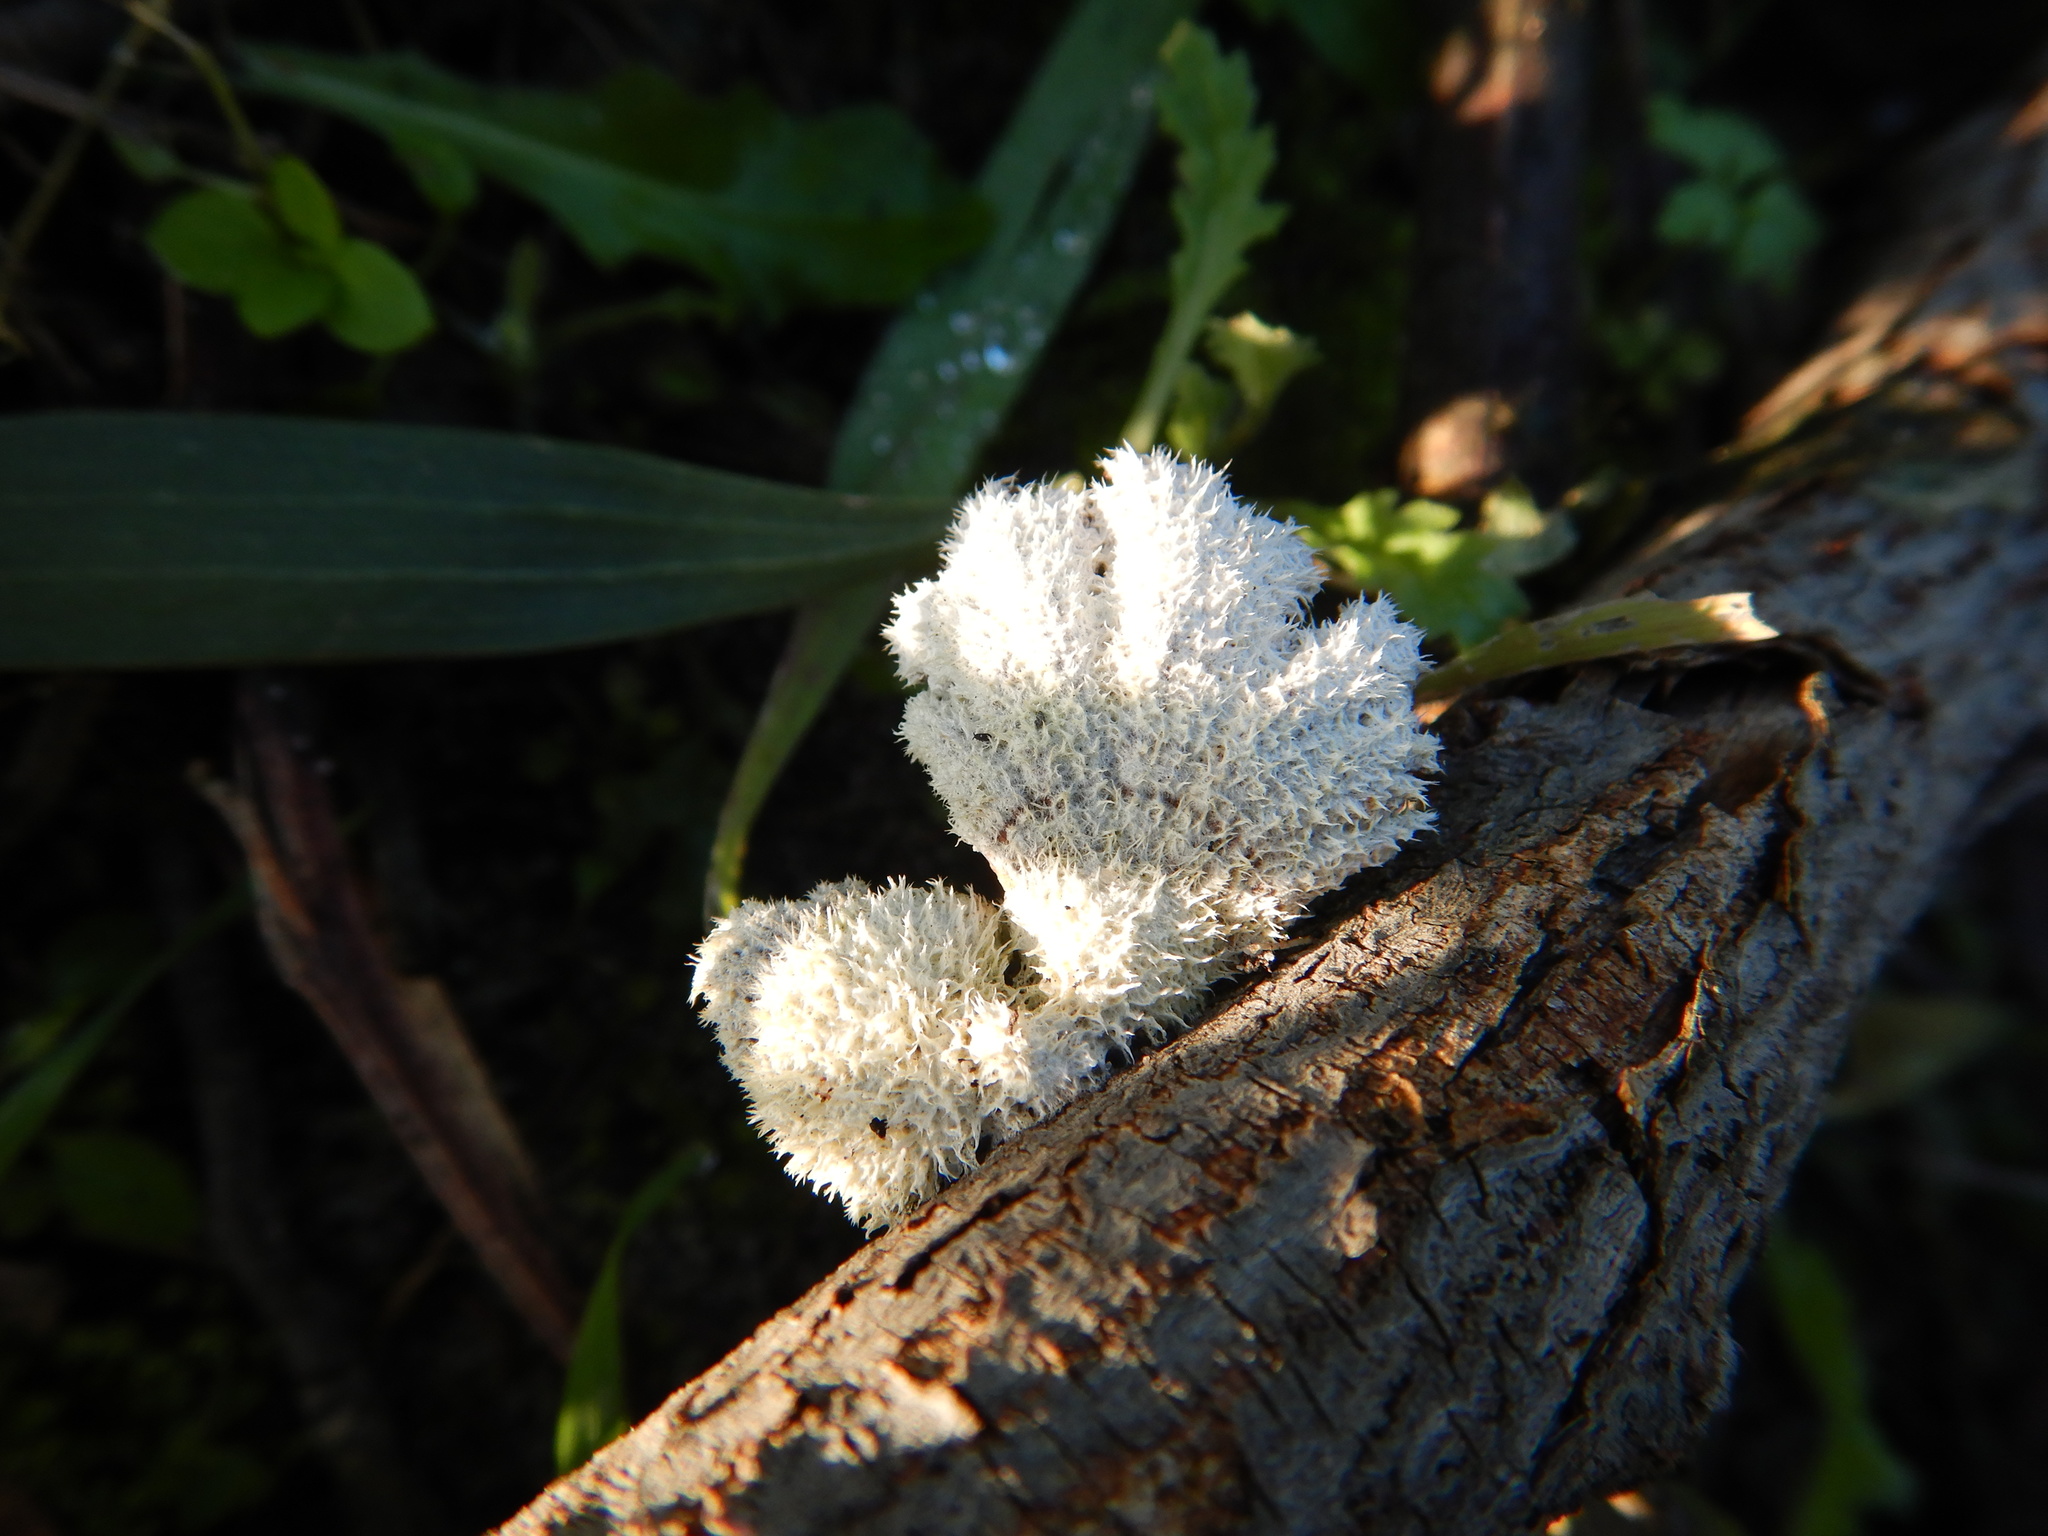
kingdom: Fungi
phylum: Basidiomycota
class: Agaricomycetes
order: Agaricales
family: Schizophyllaceae
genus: Schizophyllum
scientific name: Schizophyllum commune
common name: Common porecrust
